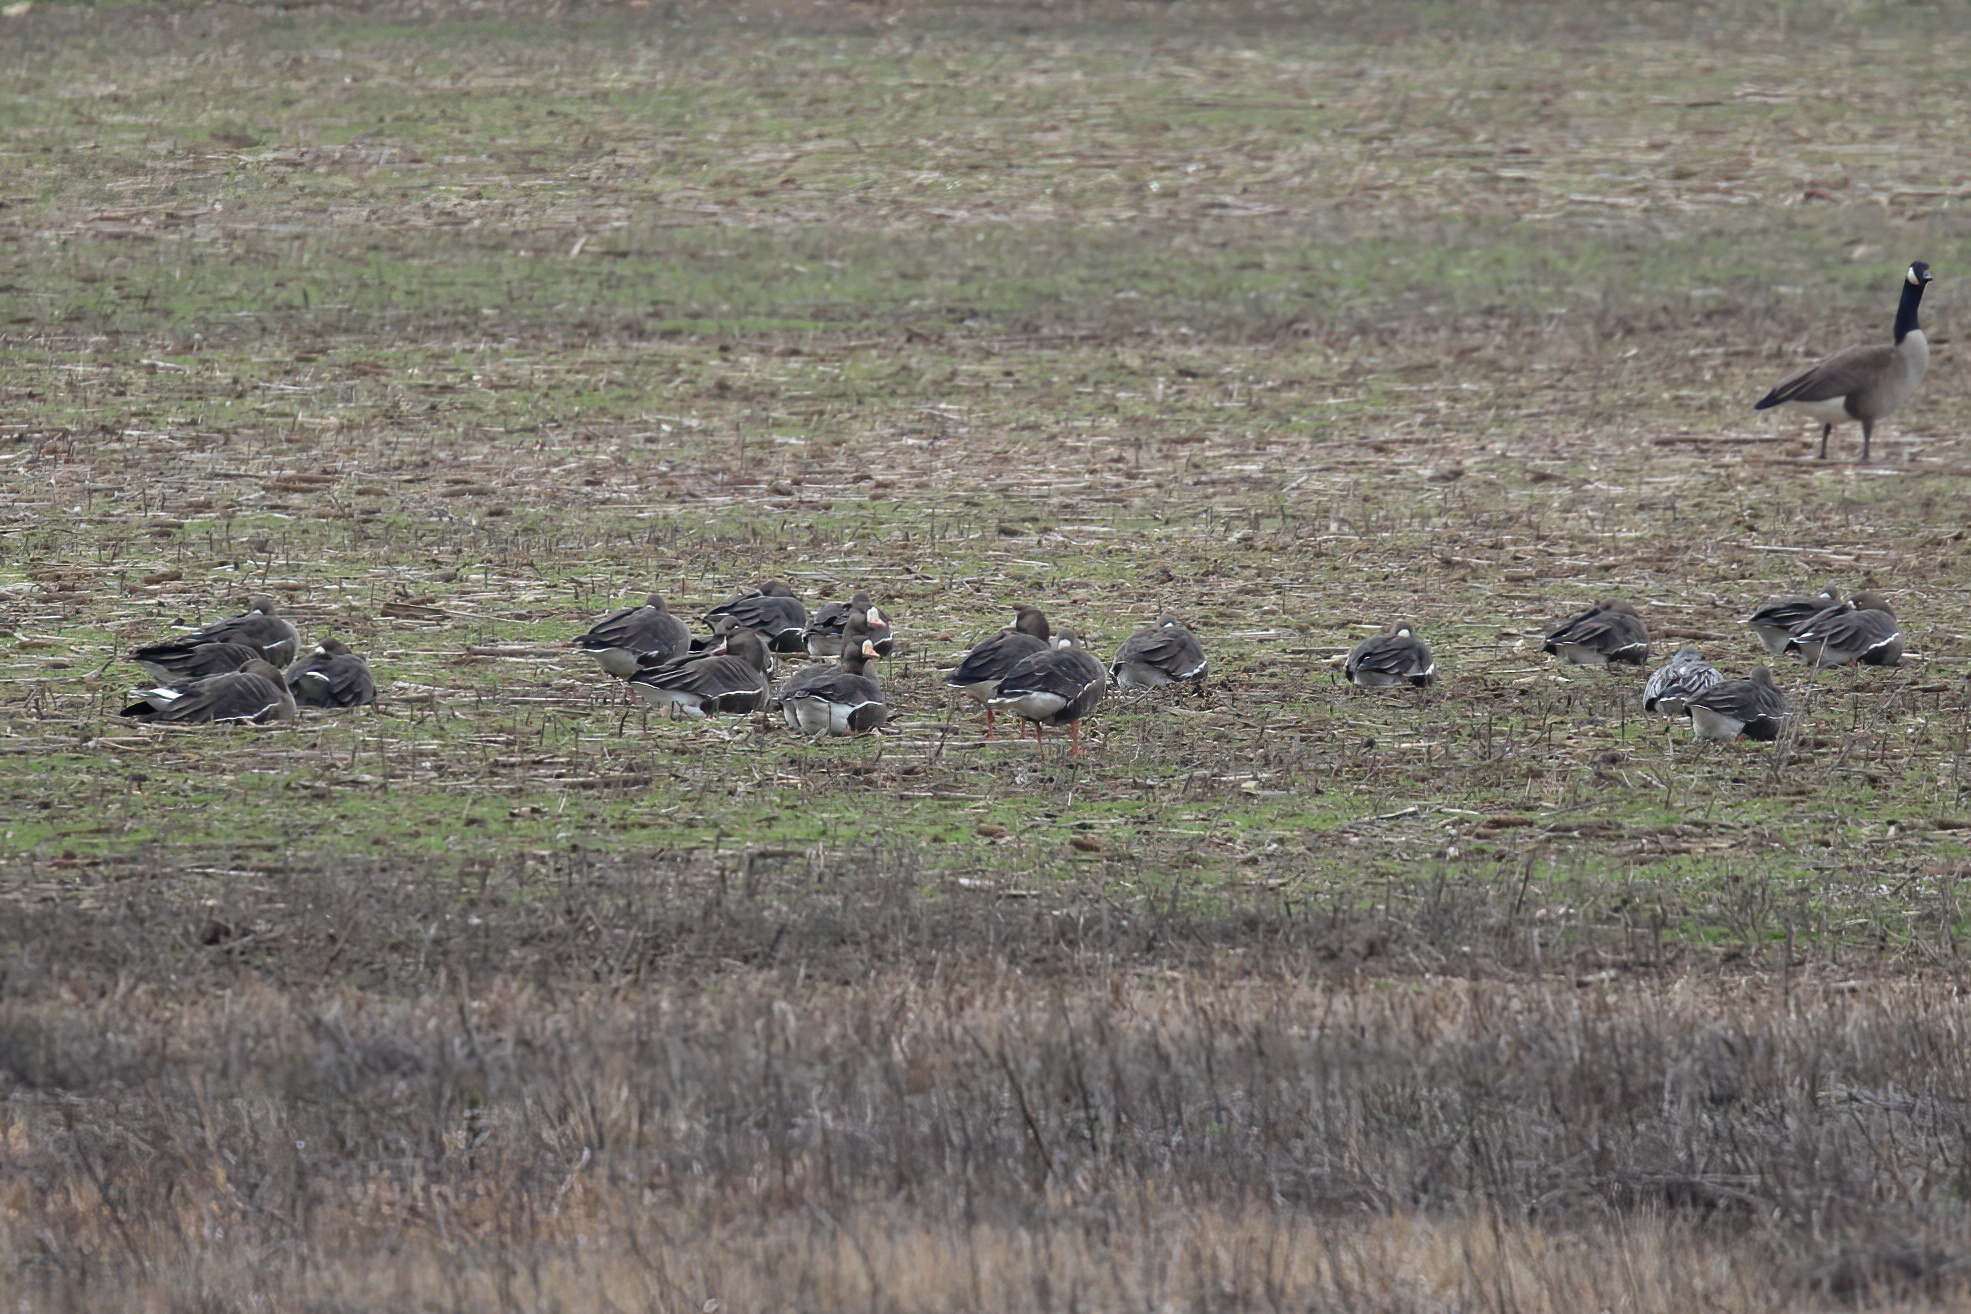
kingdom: Animalia
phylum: Chordata
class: Aves
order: Anseriformes
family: Anatidae
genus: Anser
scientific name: Anser albifrons
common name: Greater white-fronted goose
